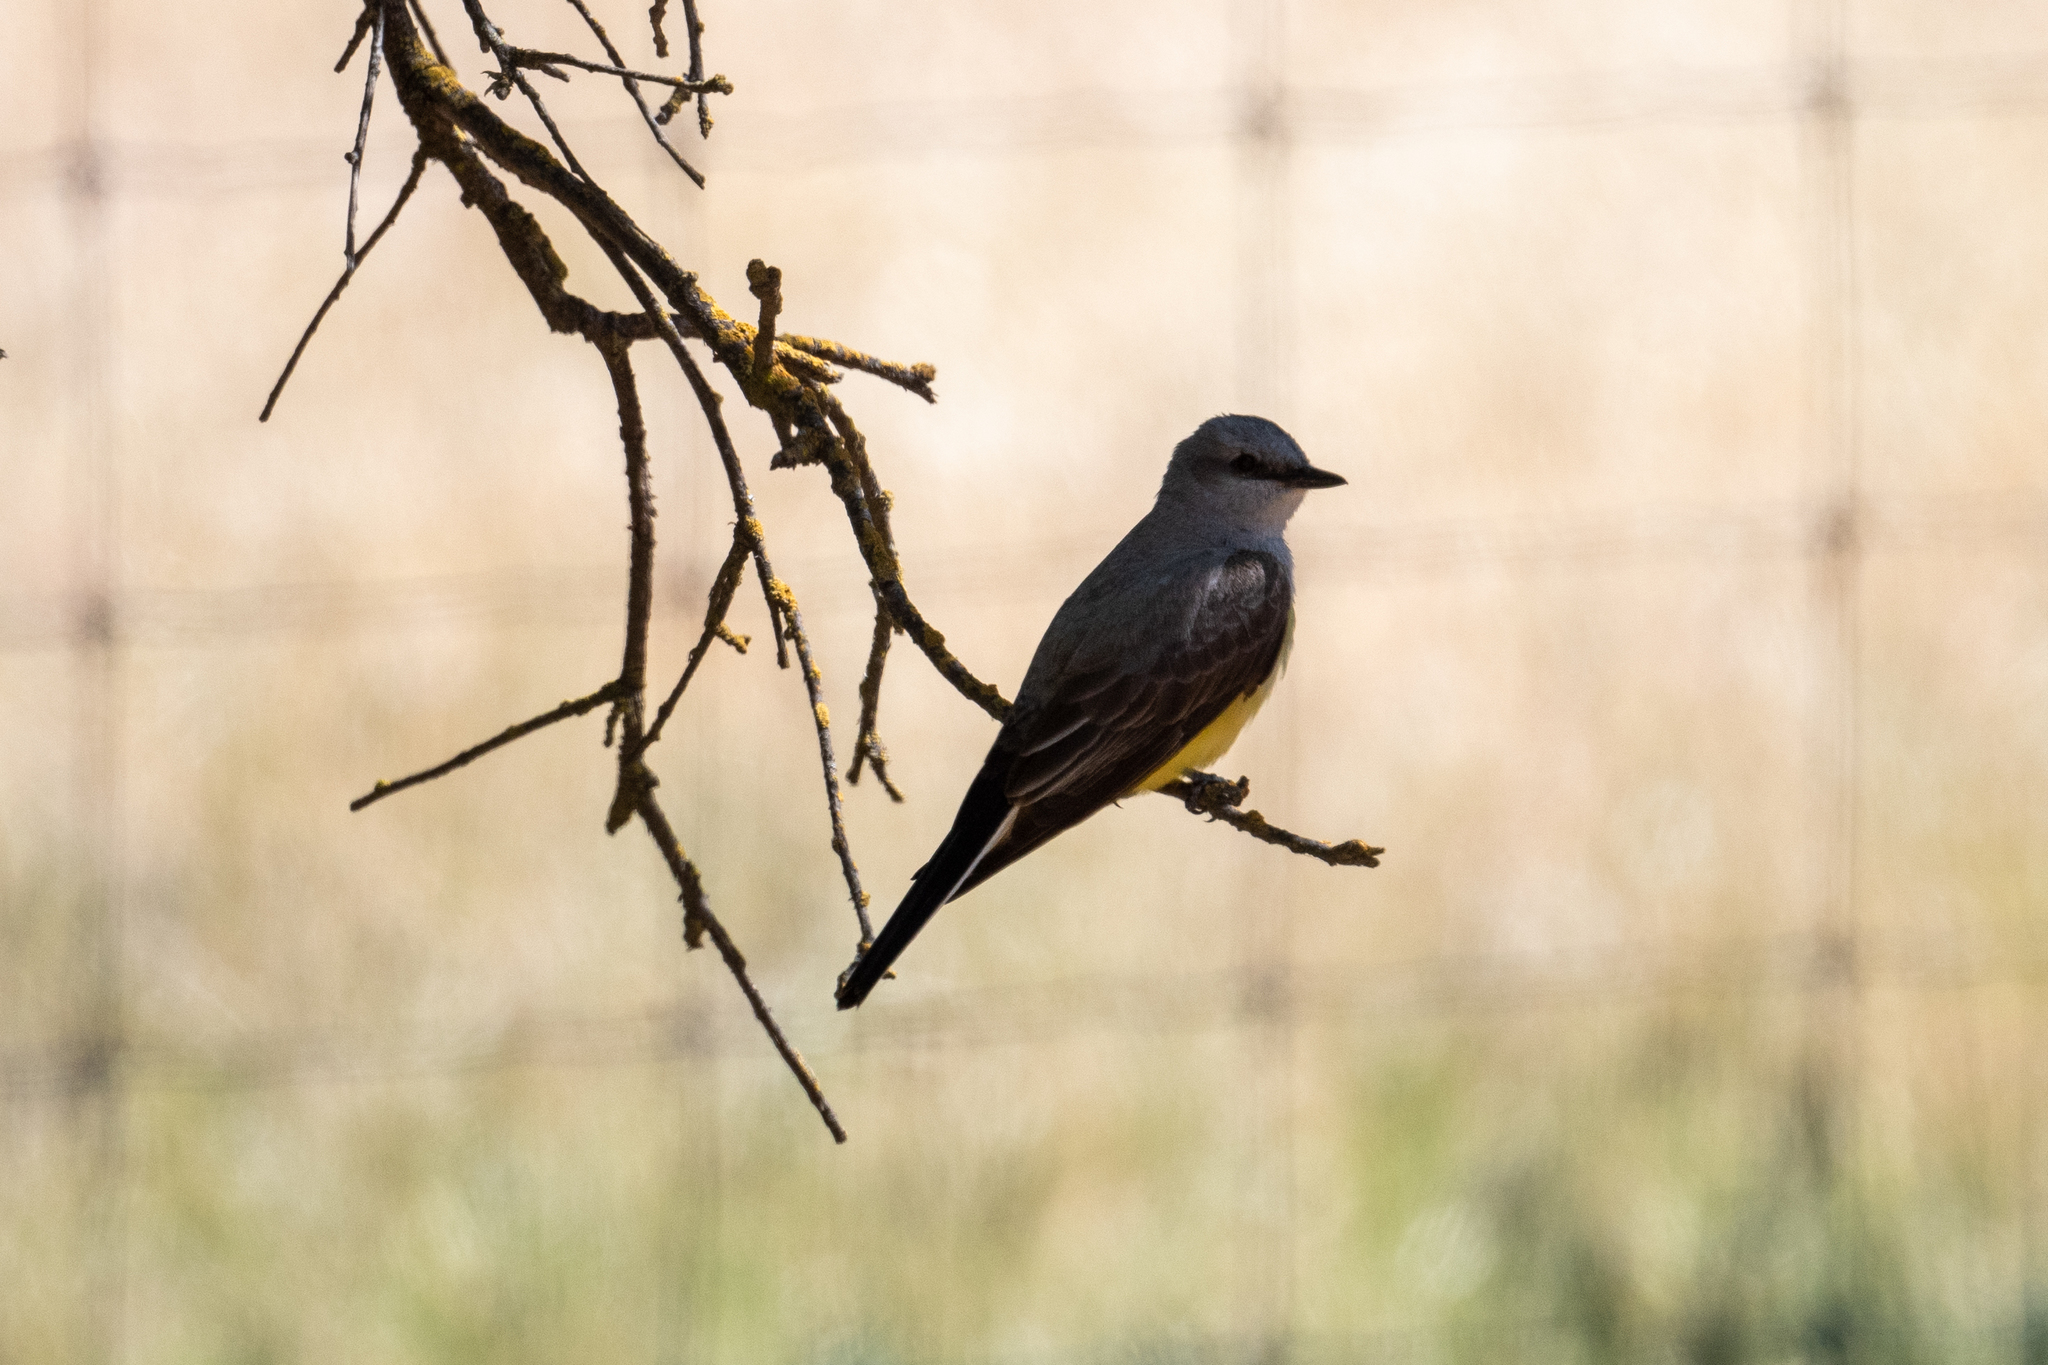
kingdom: Animalia
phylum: Chordata
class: Aves
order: Passeriformes
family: Tyrannidae
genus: Tyrannus
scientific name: Tyrannus verticalis
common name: Western kingbird
